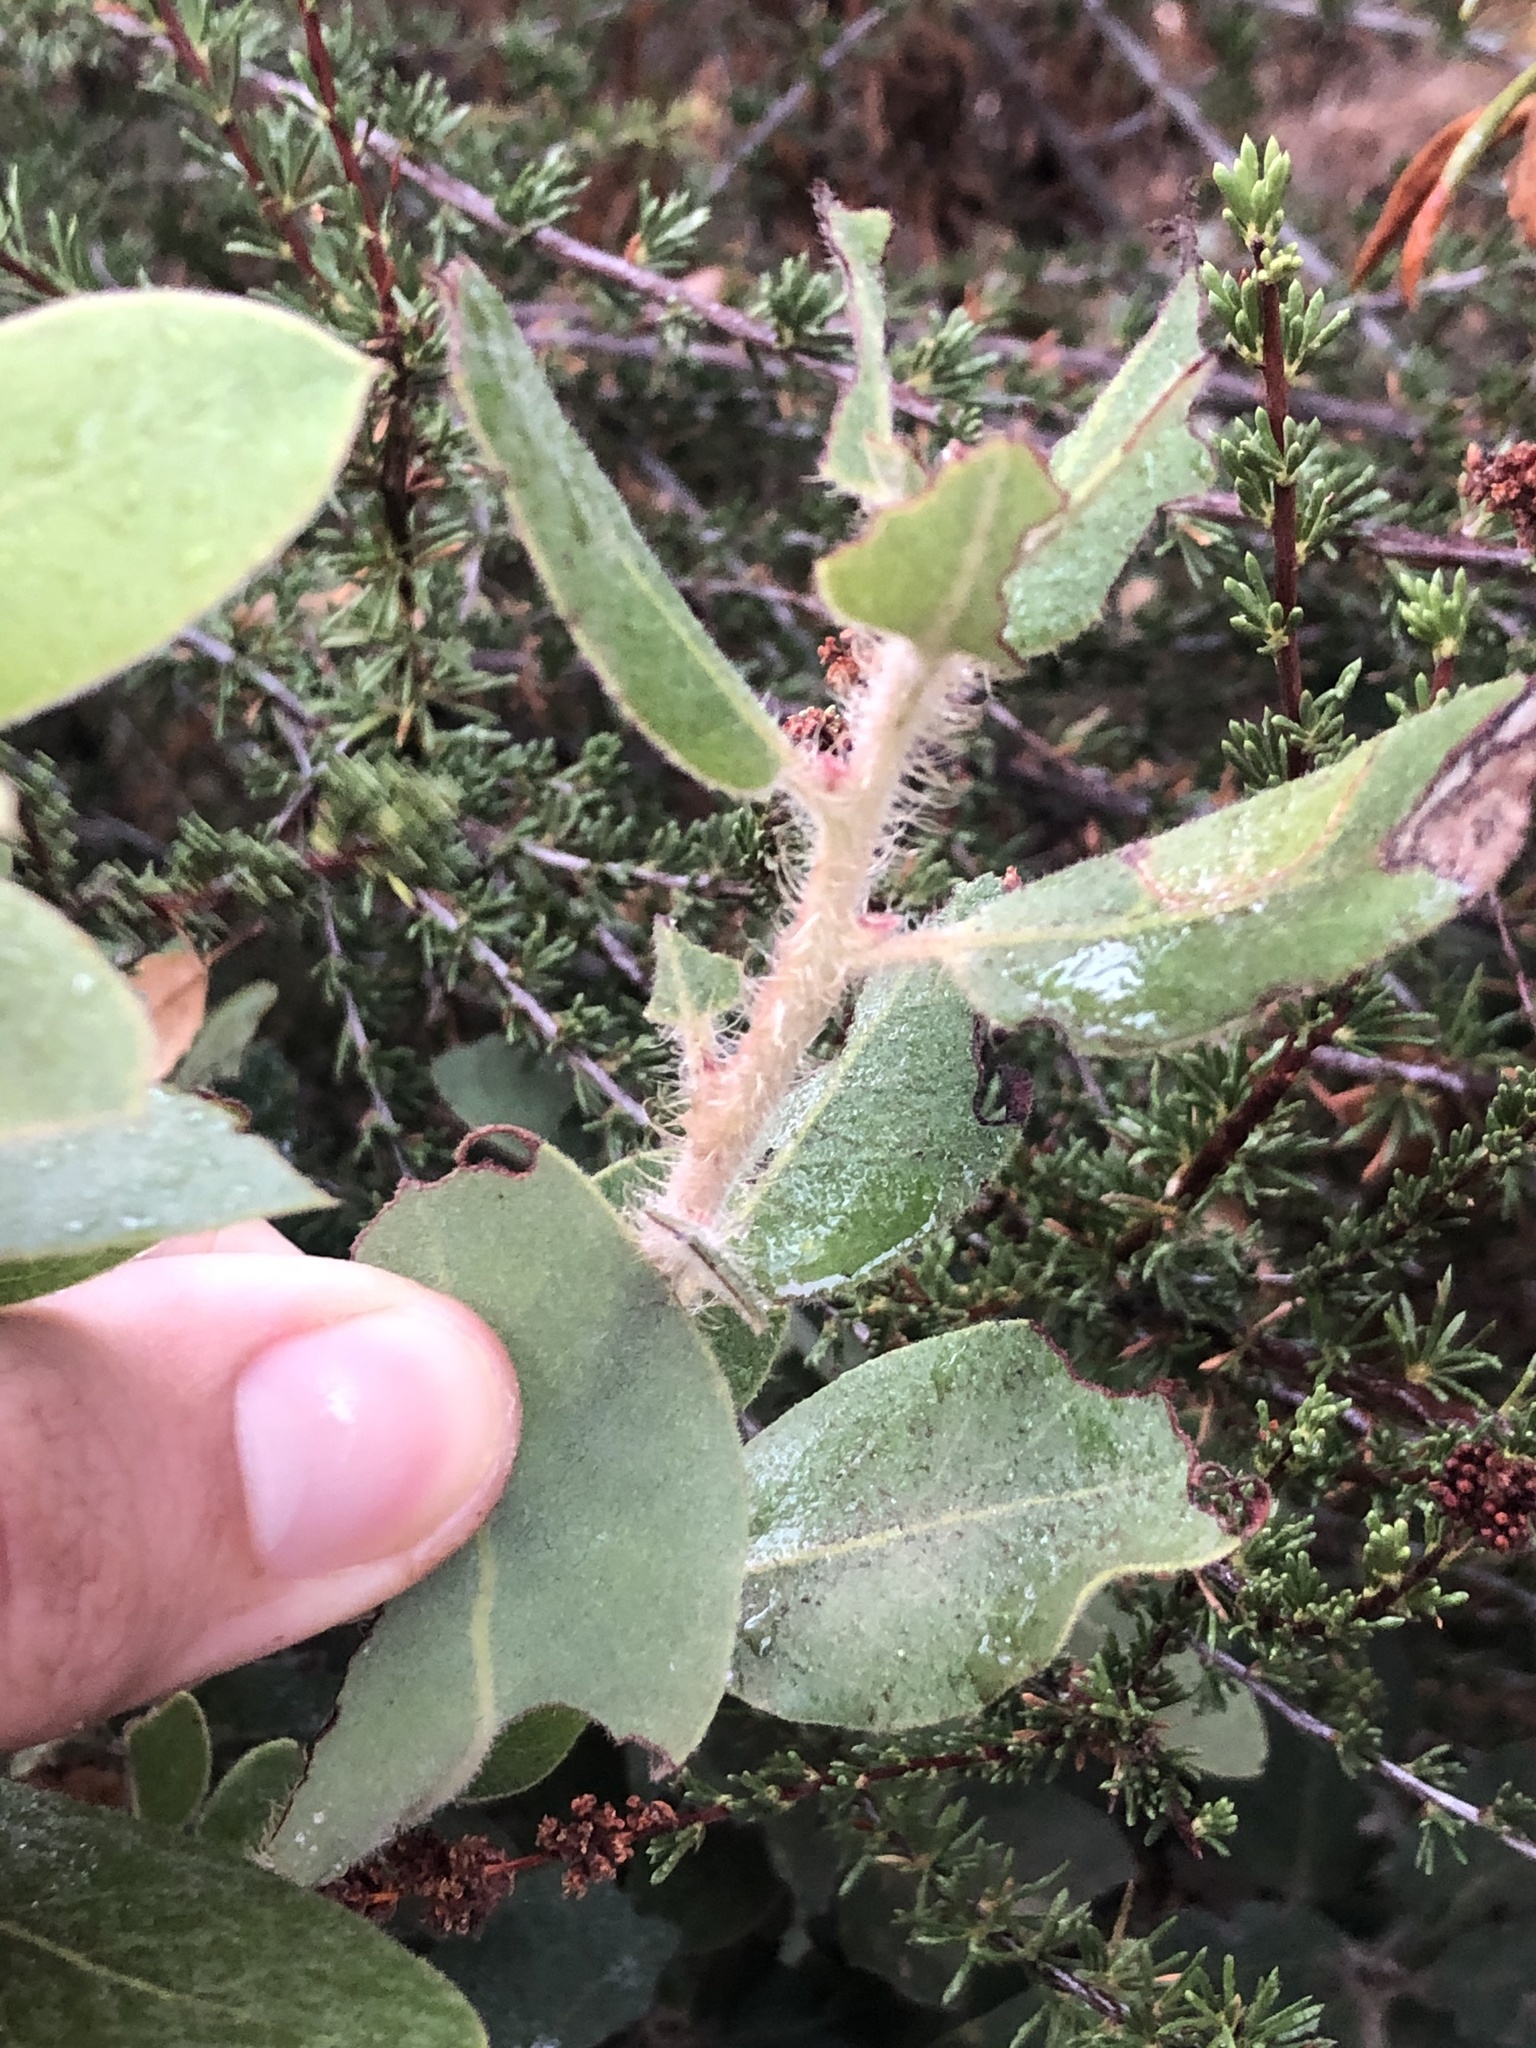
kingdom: Plantae
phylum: Tracheophyta
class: Magnoliopsida
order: Ericales
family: Ericaceae
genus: Arctostaphylos
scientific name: Arctostaphylos crustacea
